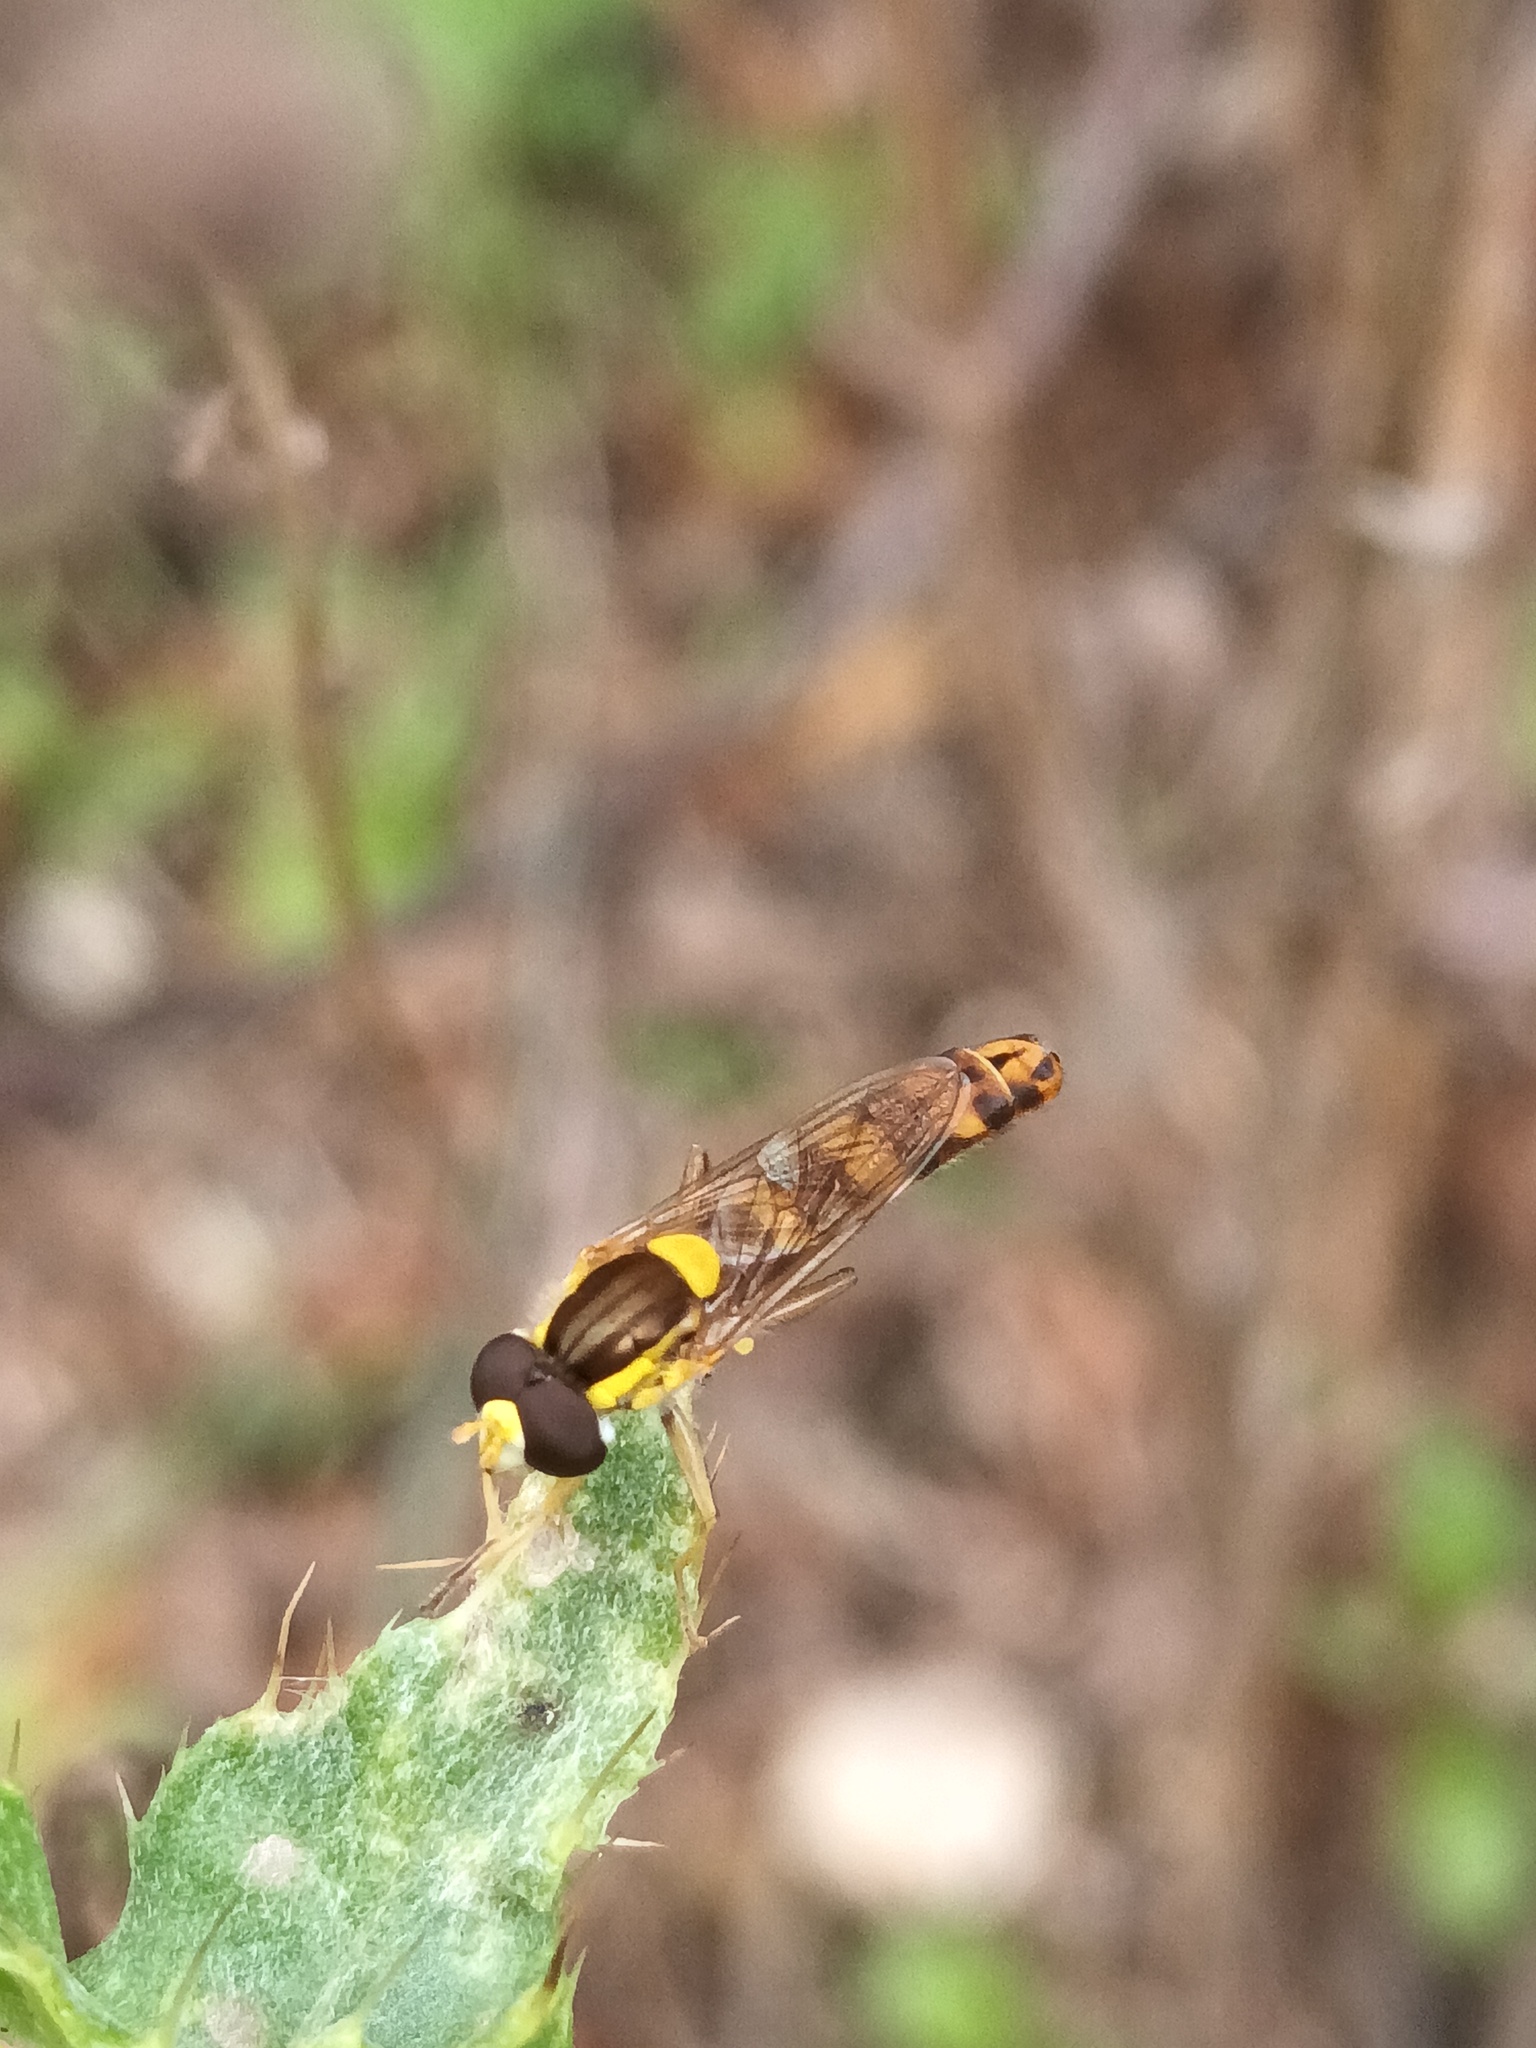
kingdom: Animalia
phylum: Arthropoda
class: Insecta
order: Diptera
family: Syrphidae
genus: Sphaerophoria
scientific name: Sphaerophoria scripta
